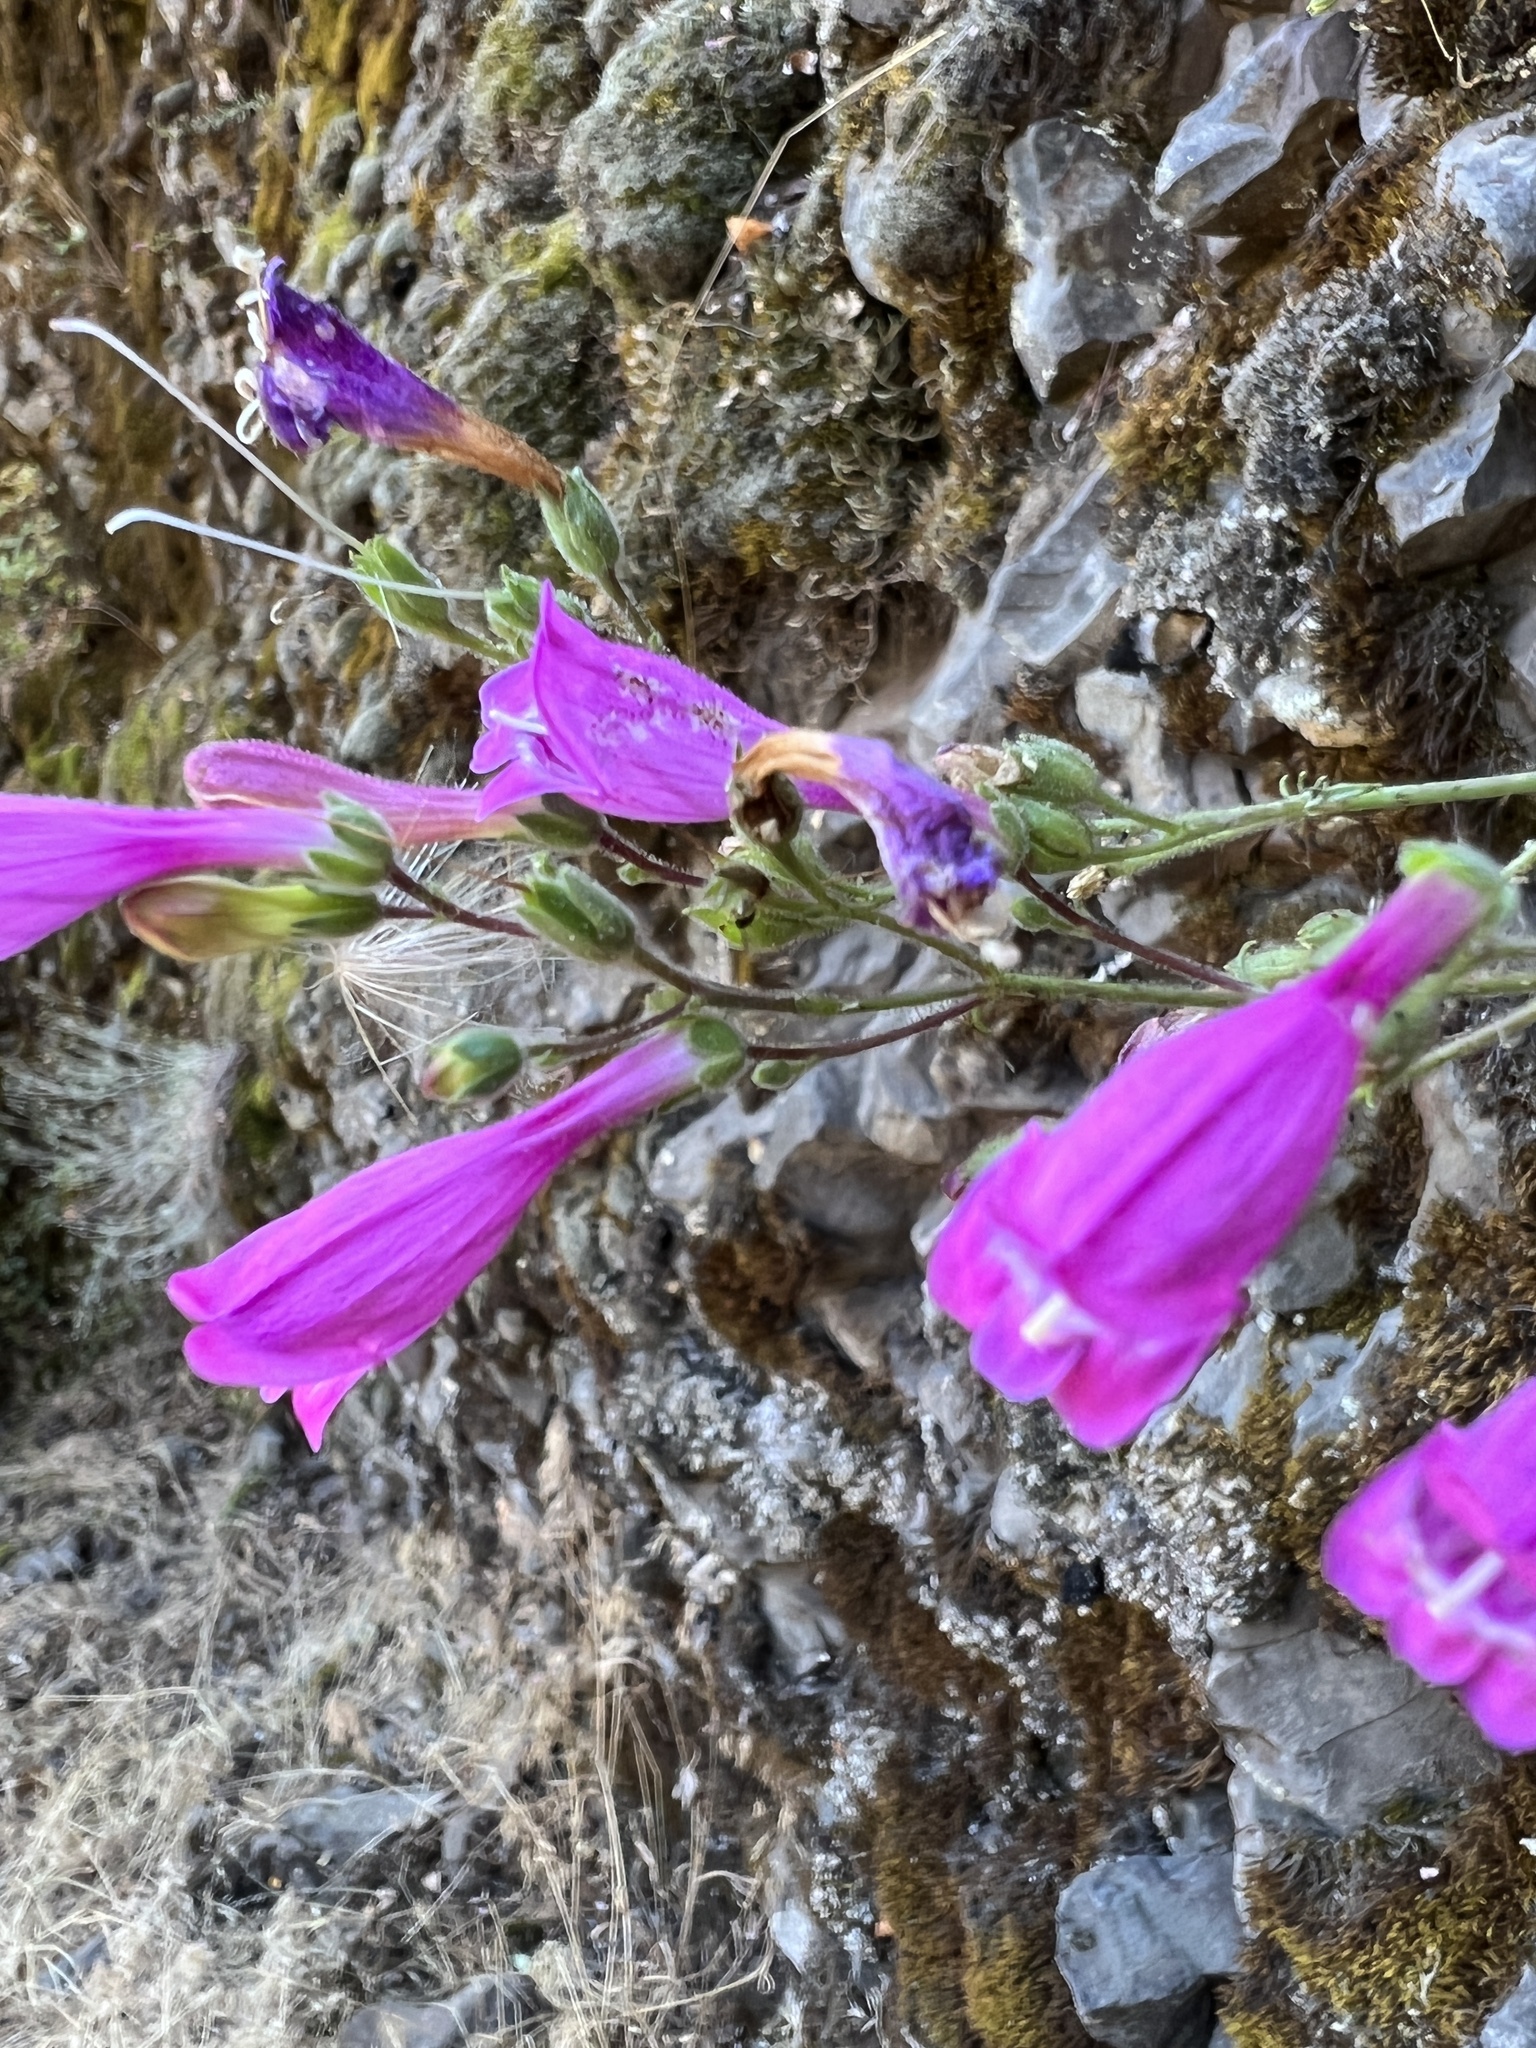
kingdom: Plantae
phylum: Tracheophyta
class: Magnoliopsida
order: Lamiales
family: Plantaginaceae
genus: Penstemon
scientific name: Penstemon richardsonii
